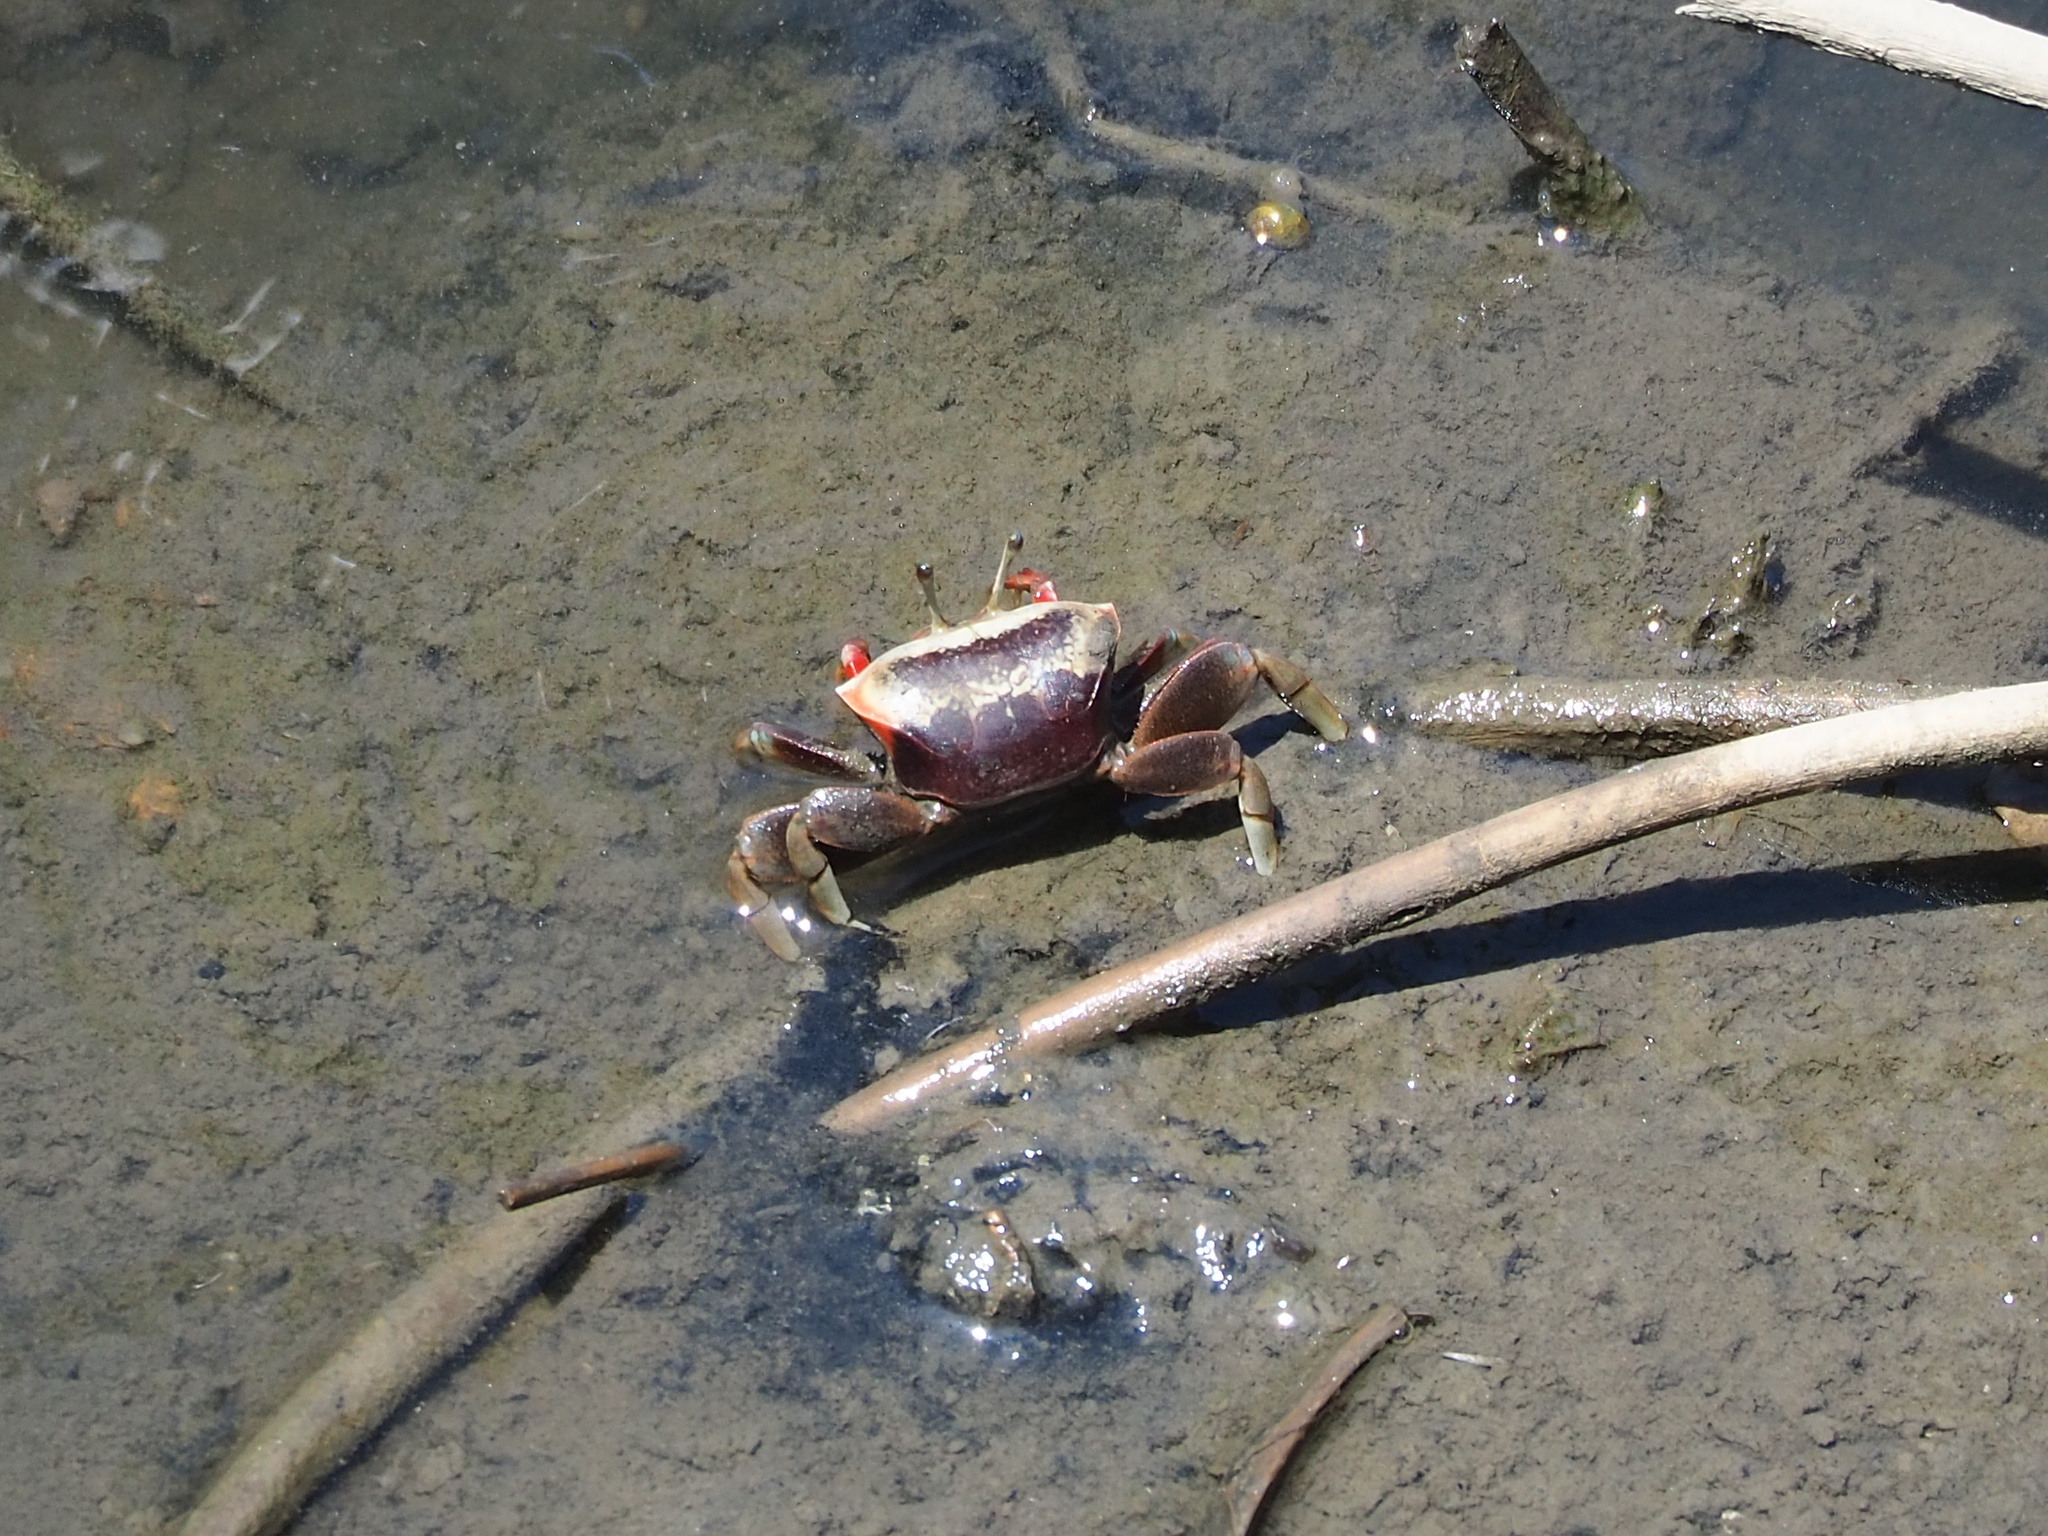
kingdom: Animalia
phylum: Arthropoda
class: Malacostraca
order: Decapoda
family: Ocypodidae
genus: Tubuca
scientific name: Tubuca arcuata
